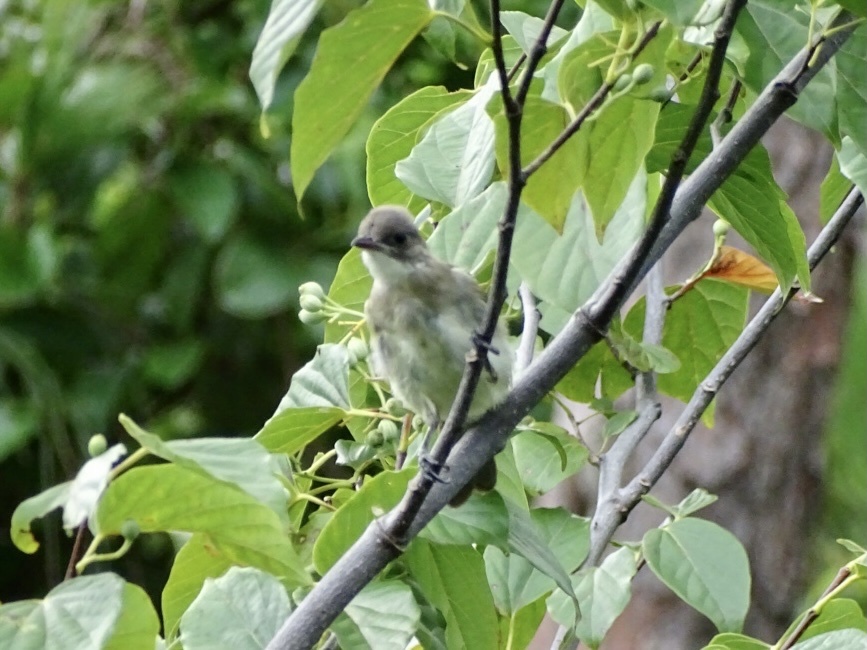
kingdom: Animalia
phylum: Chordata
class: Aves
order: Passeriformes
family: Pycnonotidae
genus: Pycnonotus
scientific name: Pycnonotus sinensis
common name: Light-vented bulbul
